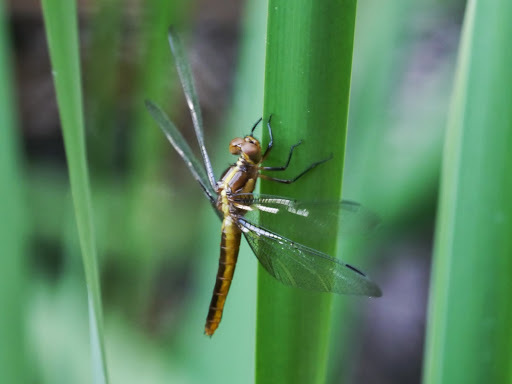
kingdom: Animalia
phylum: Arthropoda
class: Insecta
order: Odonata
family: Libellulidae
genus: Libellula
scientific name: Libellula luctuosa
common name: Widow skimmer
